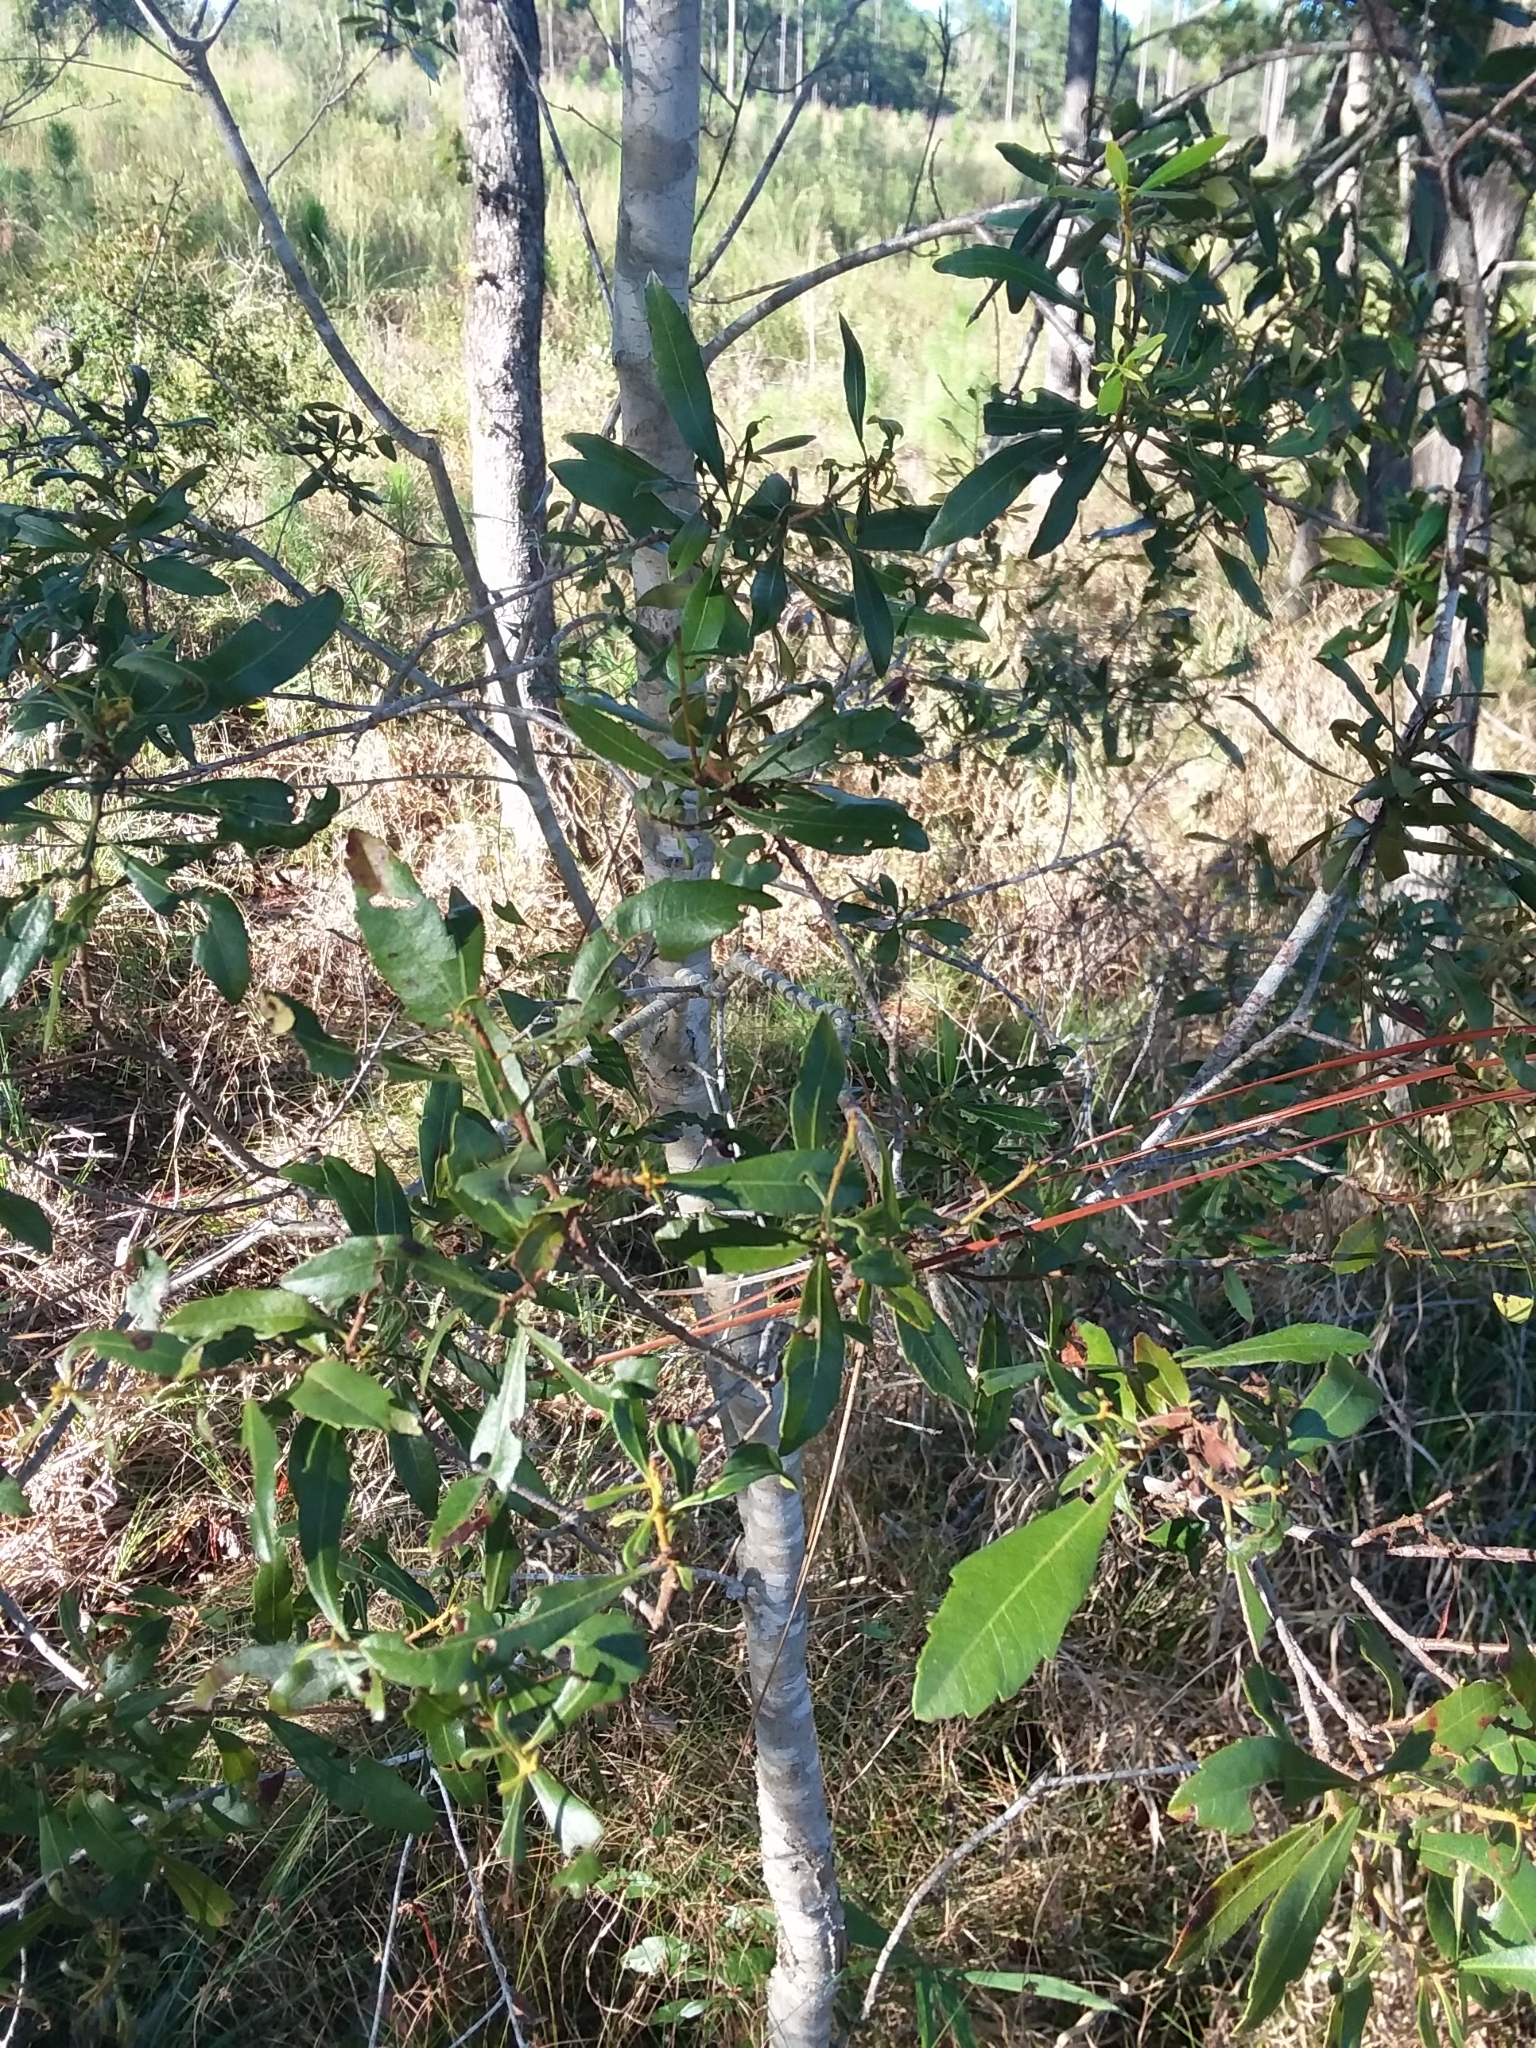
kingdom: Plantae
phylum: Tracheophyta
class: Magnoliopsida
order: Fagales
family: Myricaceae
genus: Morella
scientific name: Morella cerifera
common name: Wax myrtle
